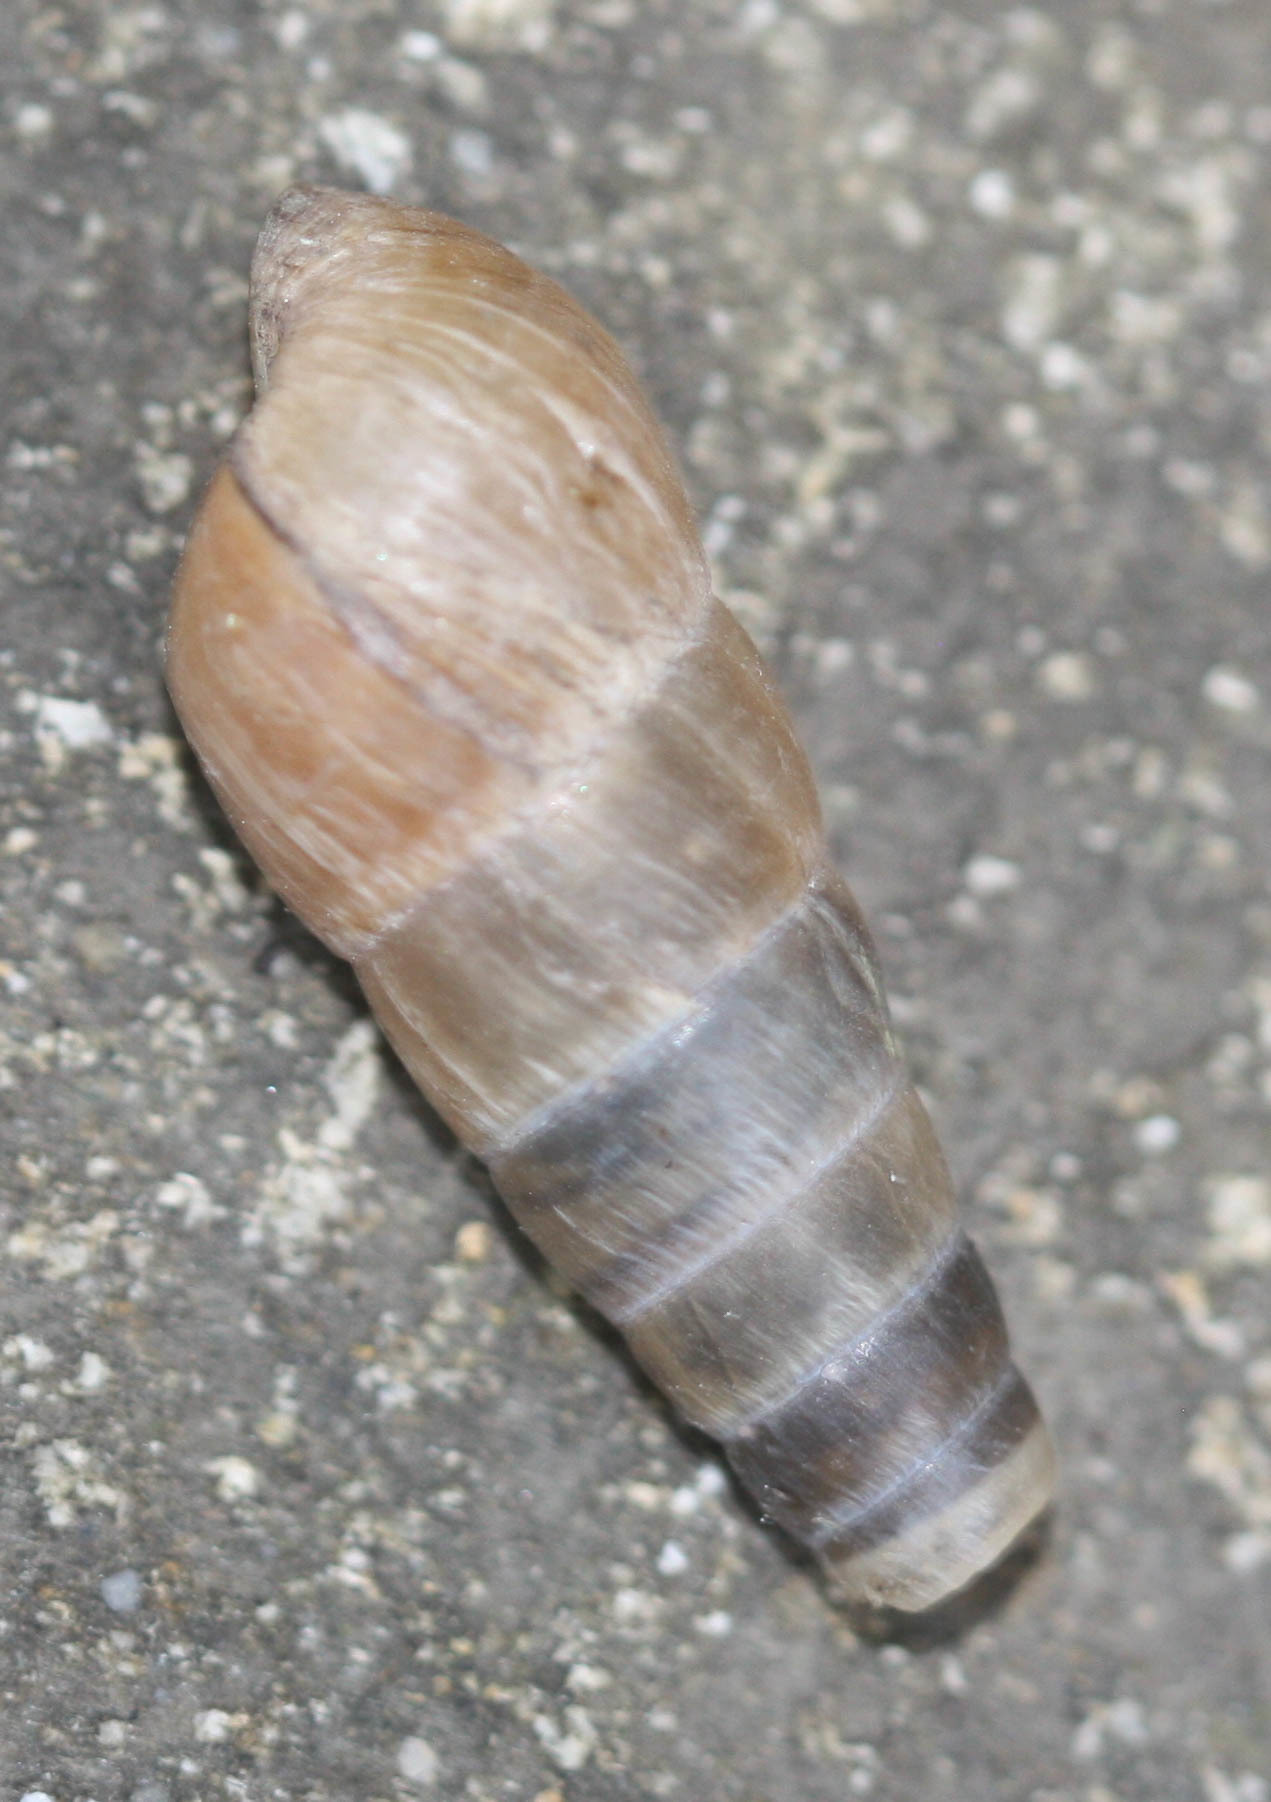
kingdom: Animalia
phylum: Mollusca
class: Gastropoda
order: Stylommatophora
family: Achatinidae
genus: Rumina
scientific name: Rumina decollata
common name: Decollate snail
